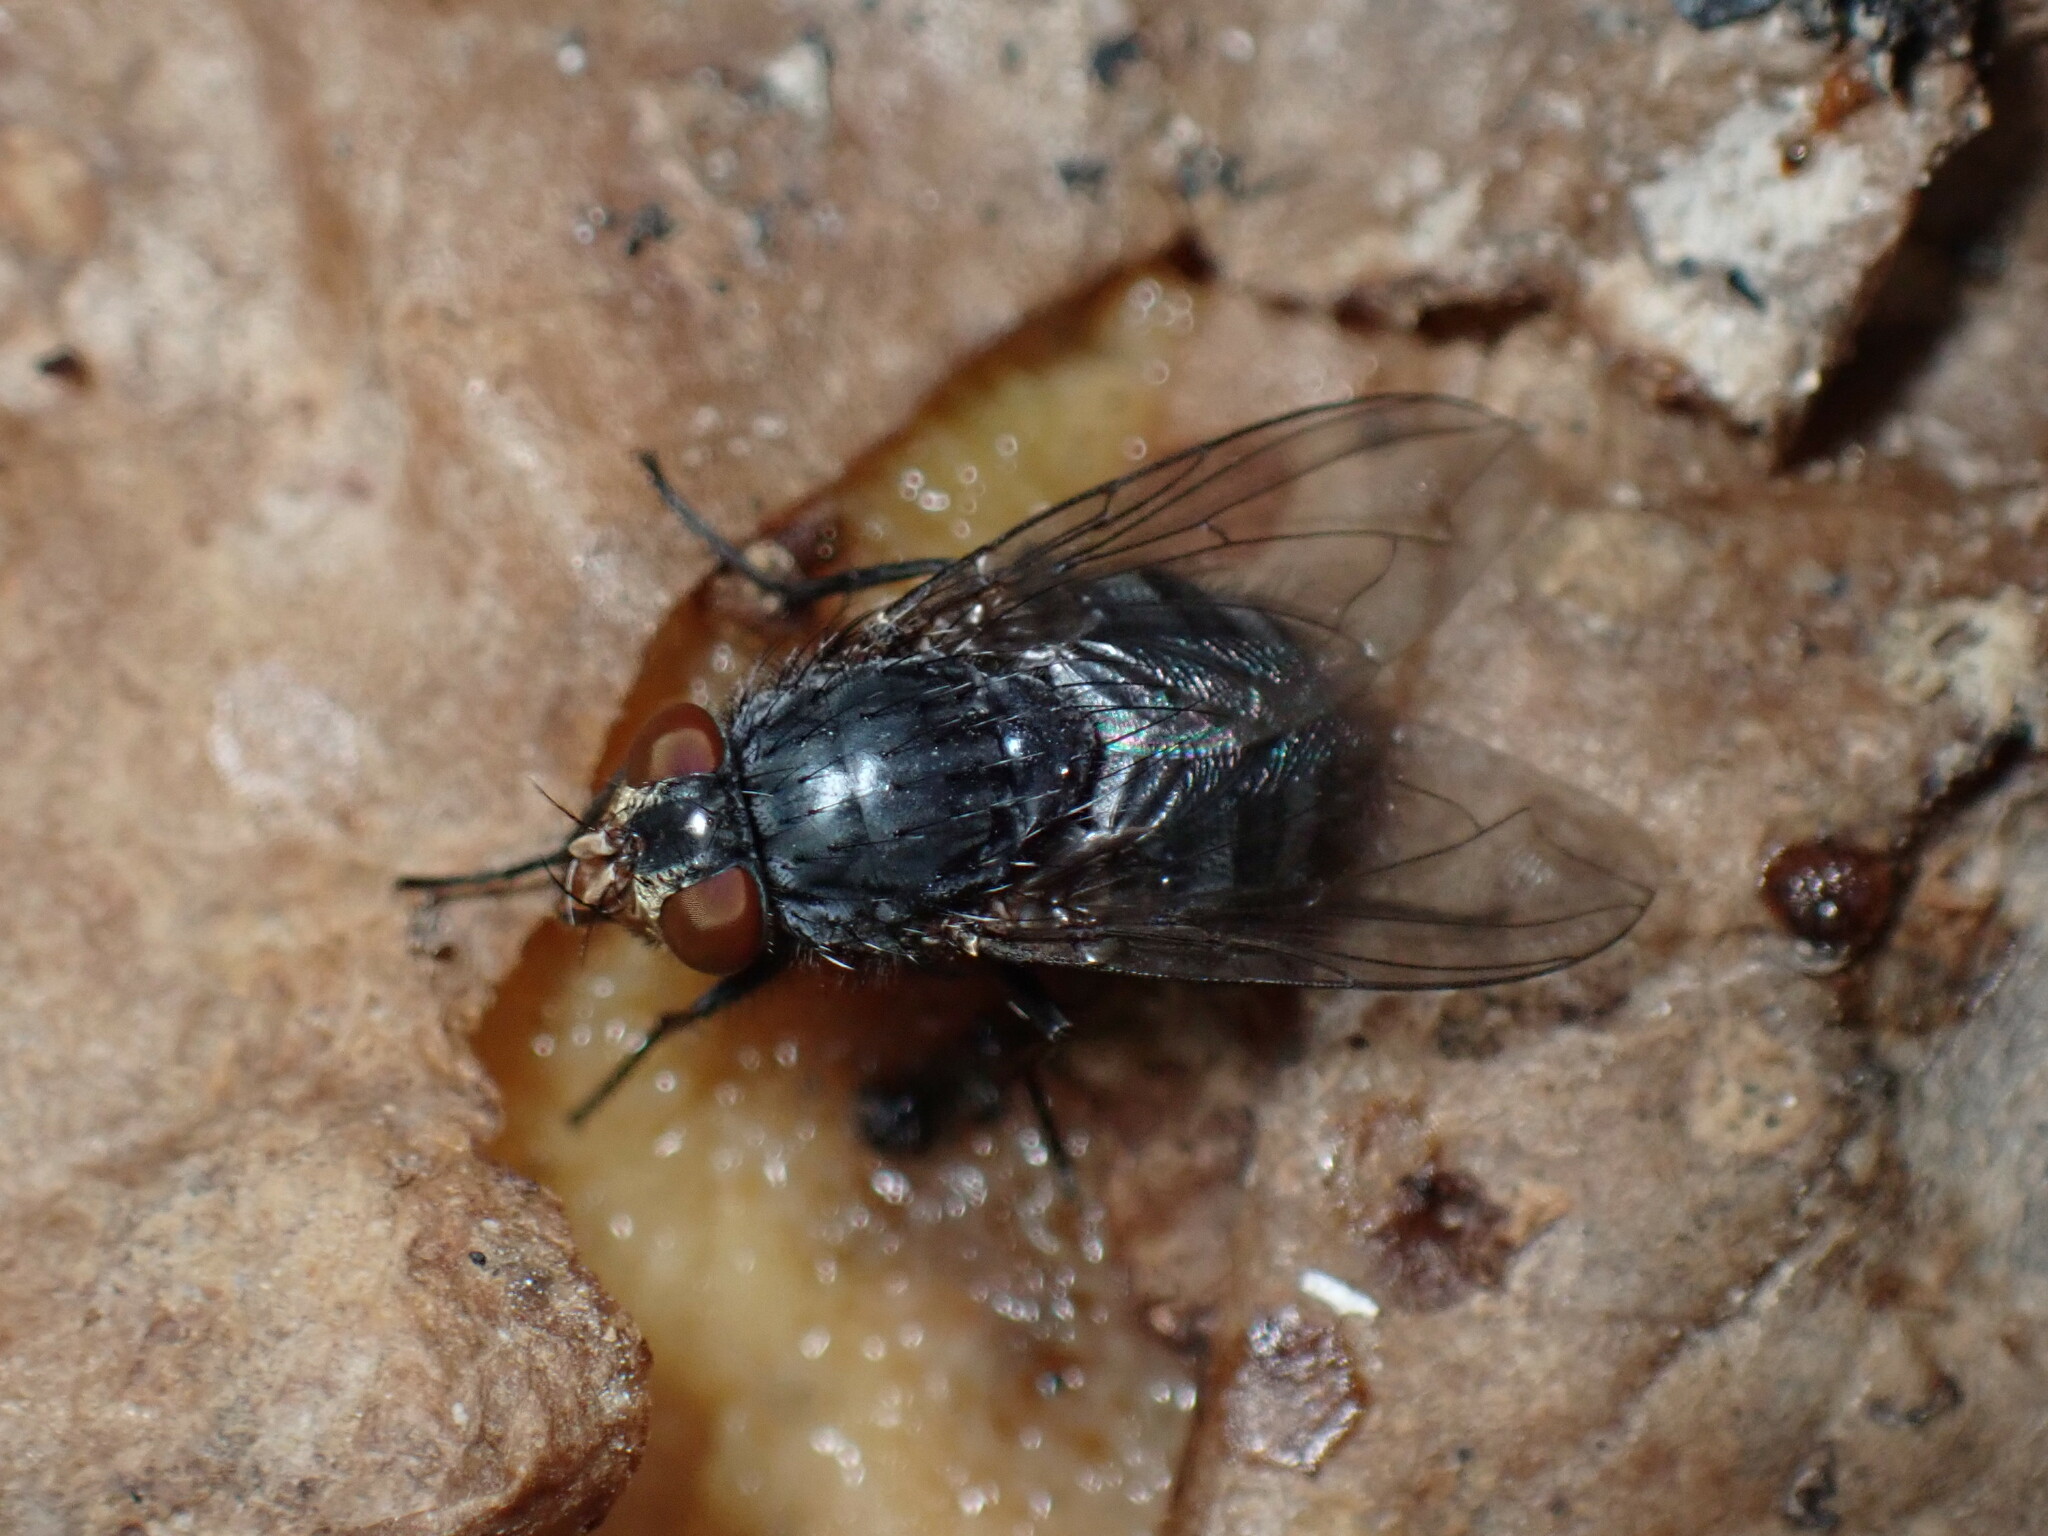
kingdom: Animalia
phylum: Arthropoda
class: Insecta
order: Diptera
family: Calliphoridae
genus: Calliphora
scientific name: Calliphora vicina
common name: Common blow flie
